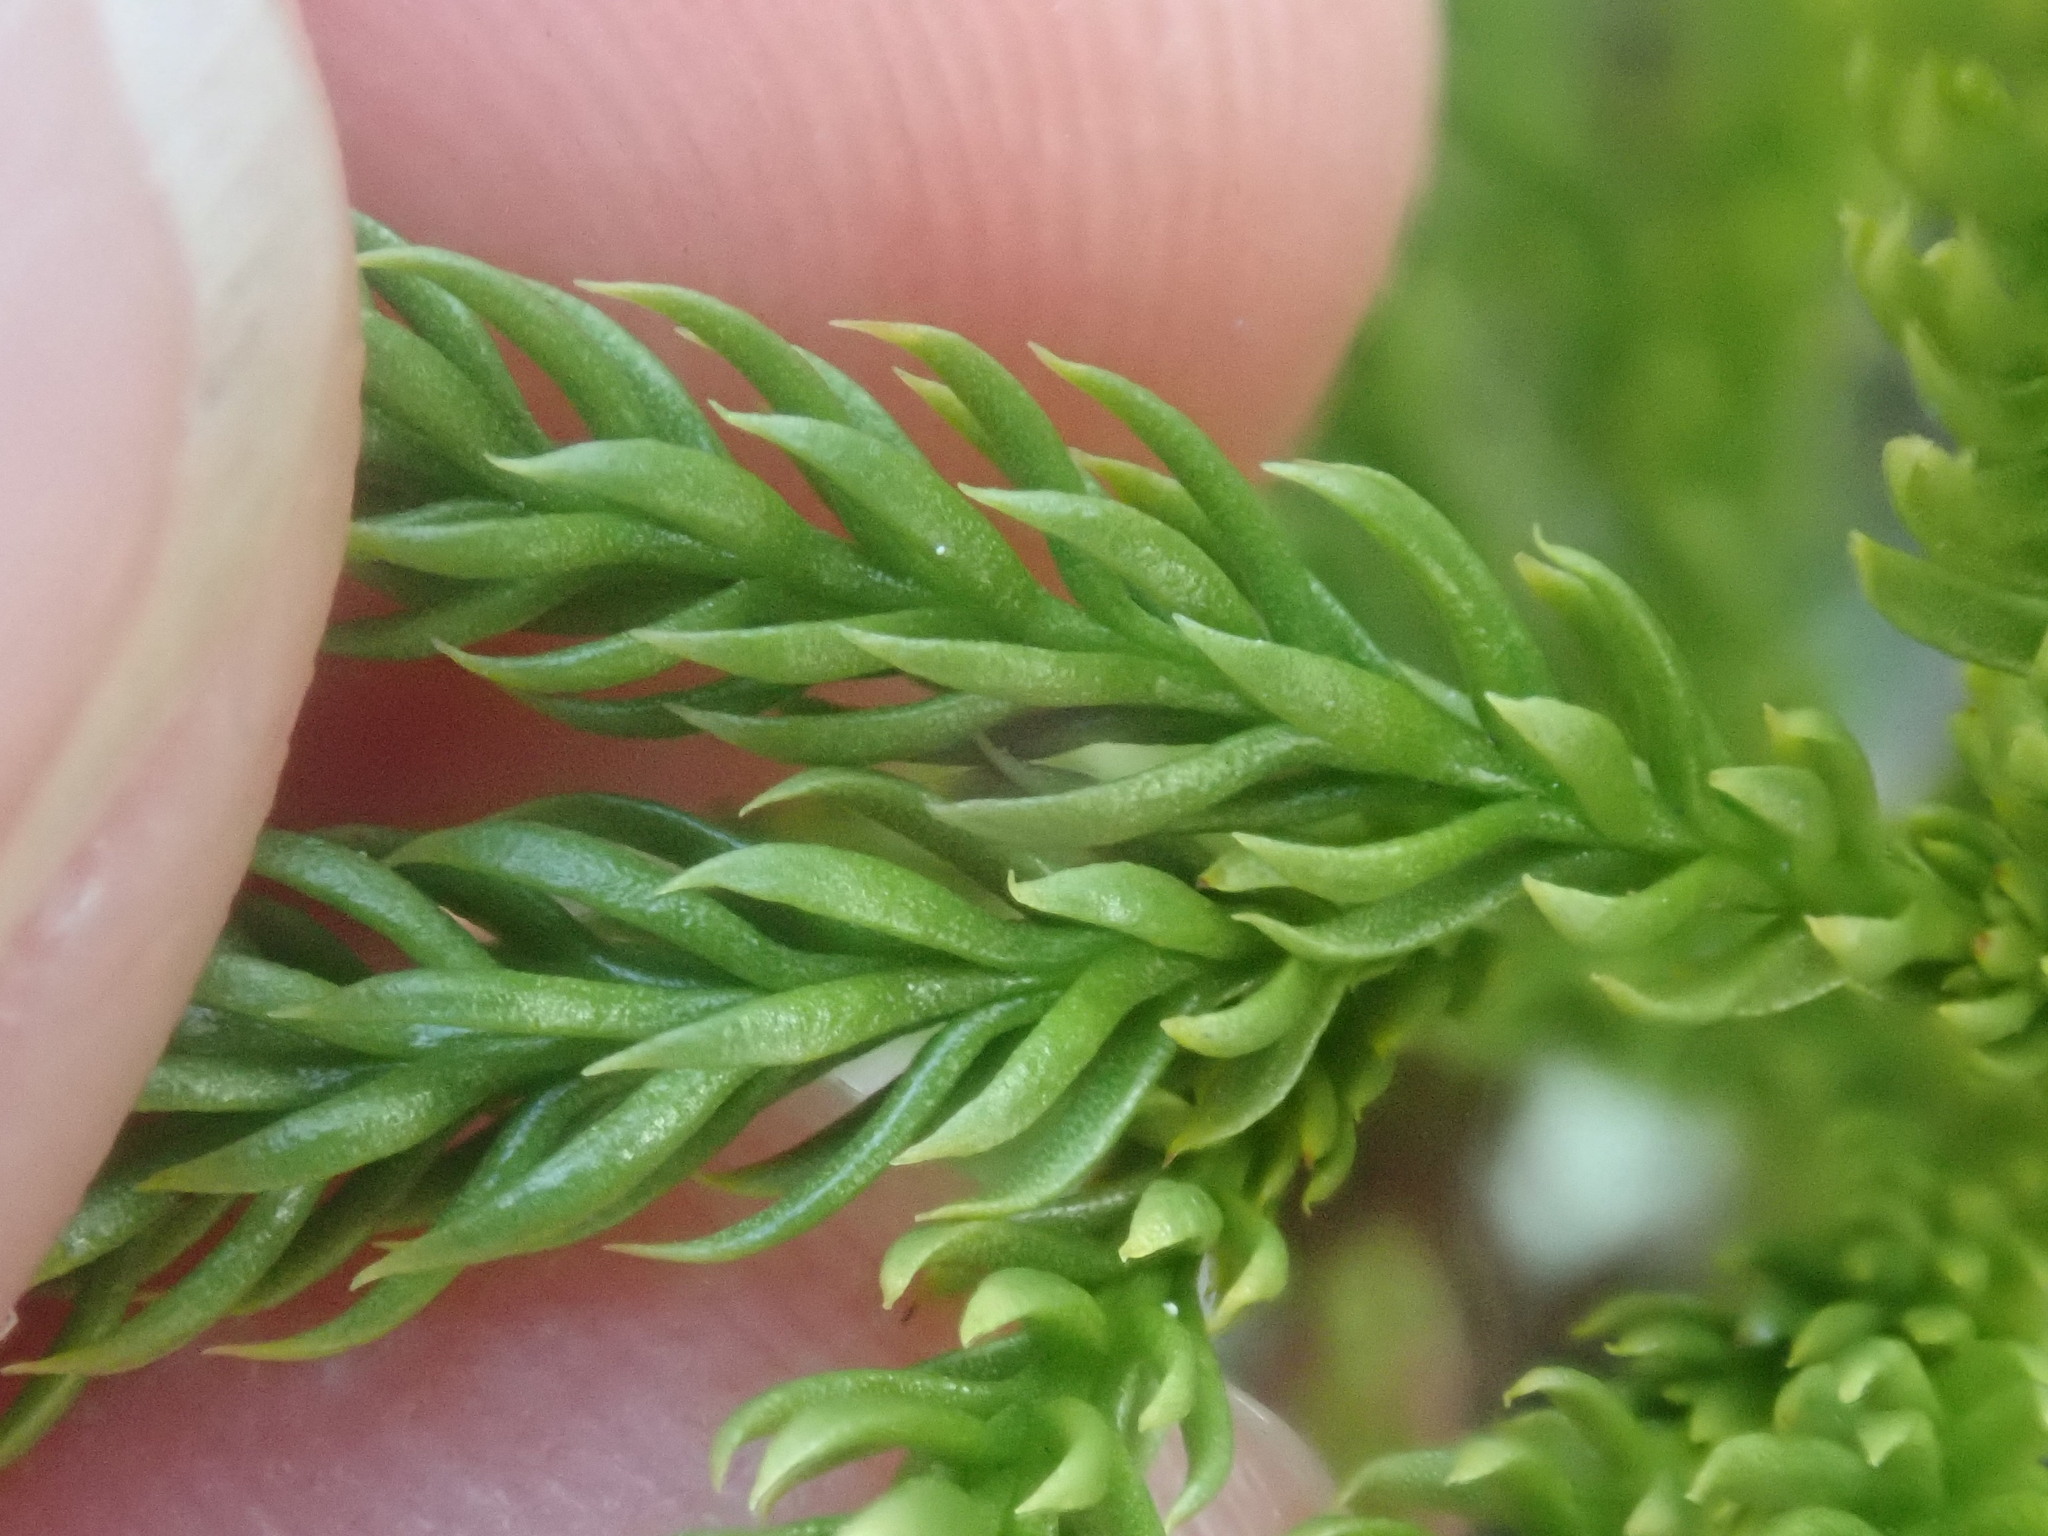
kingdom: Plantae
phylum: Tracheophyta
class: Lycopodiopsida
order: Lycopodiales
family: Lycopodiaceae
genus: Dendrolycopodium
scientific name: Dendrolycopodium hickeyi
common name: Hickey's clubmoss
